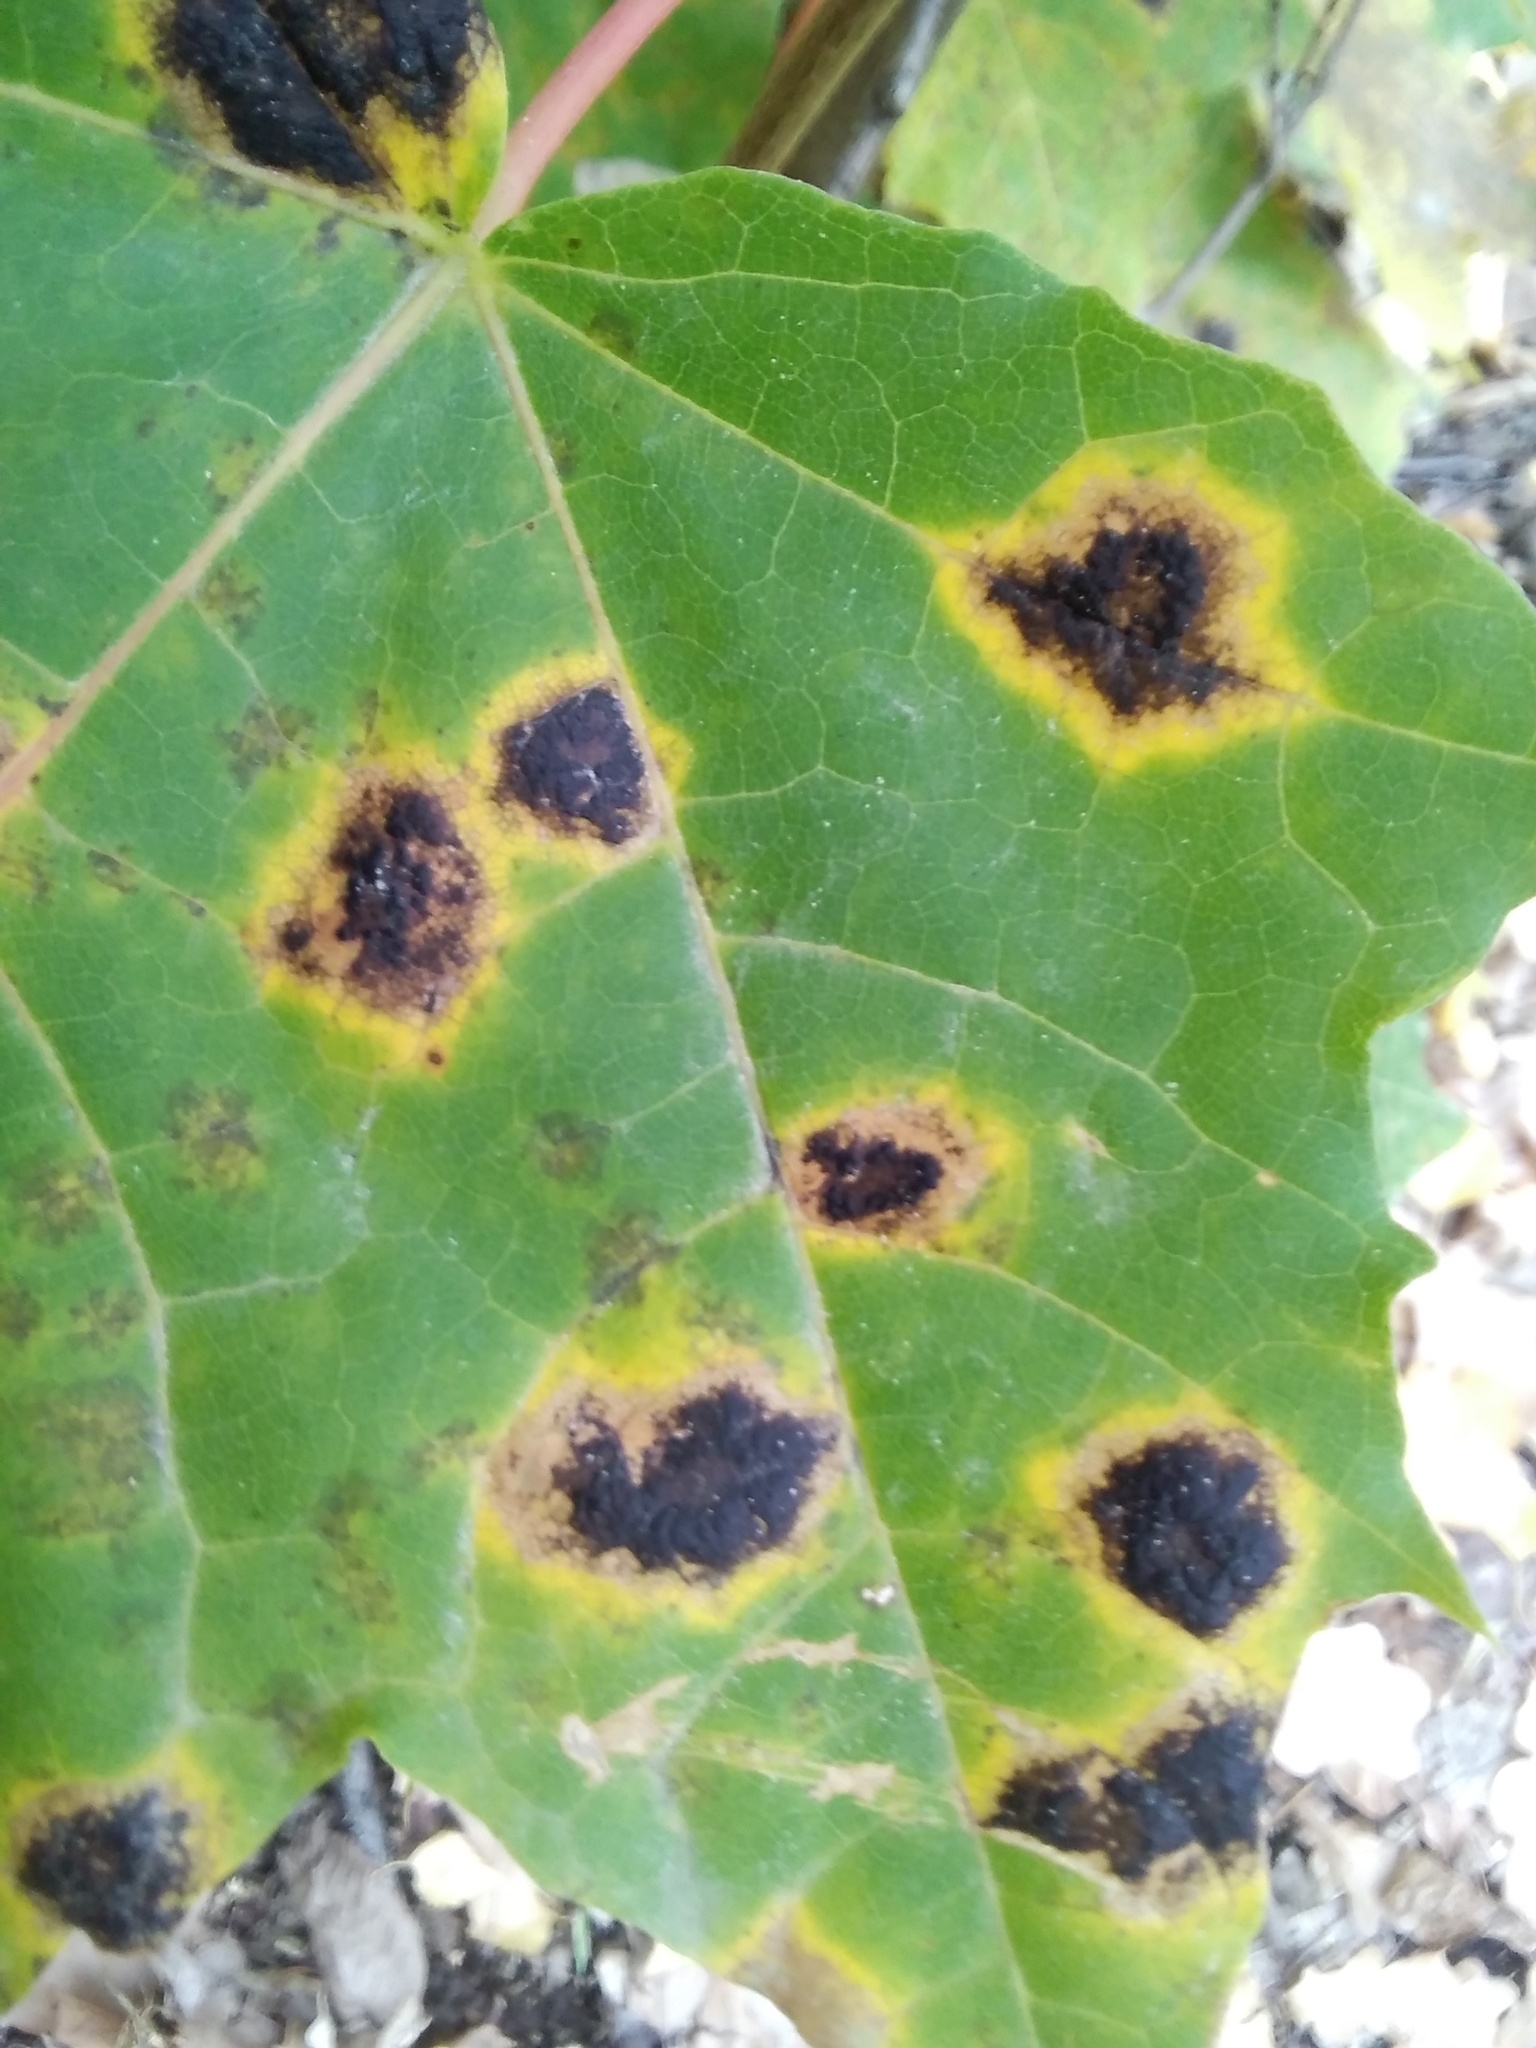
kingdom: Fungi
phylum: Ascomycota
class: Leotiomycetes
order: Rhytismatales
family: Rhytismataceae
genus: Rhytisma
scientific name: Rhytisma acerinum
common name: European tar spot
